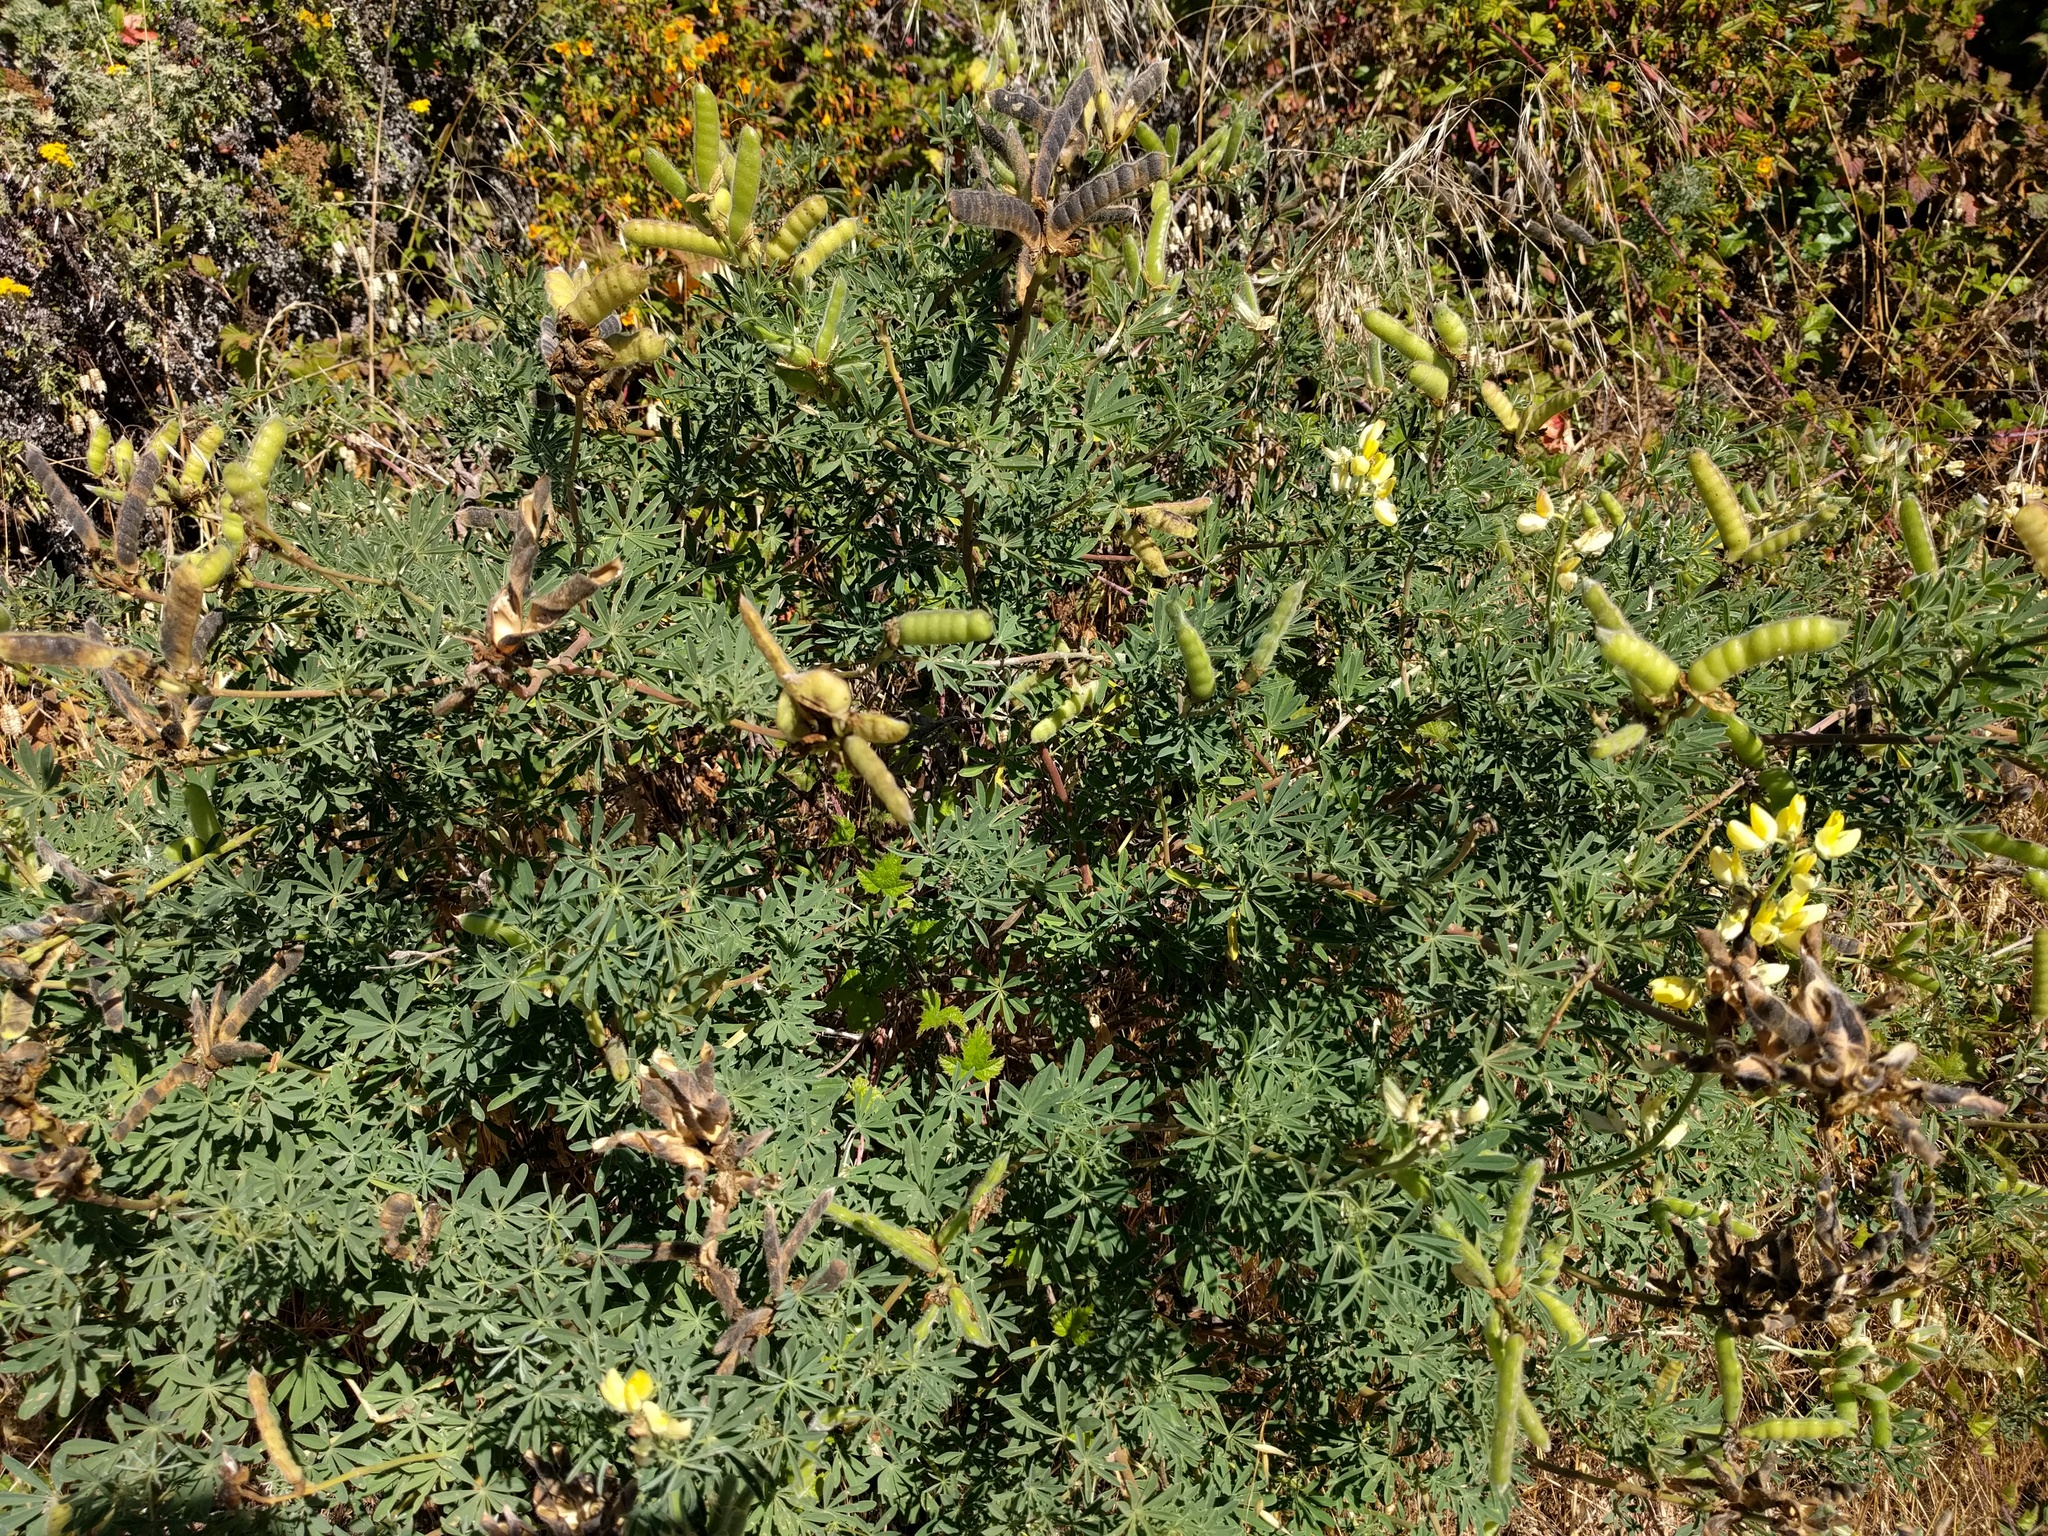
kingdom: Plantae
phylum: Tracheophyta
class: Magnoliopsida
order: Fabales
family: Fabaceae
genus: Lupinus
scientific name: Lupinus arboreus
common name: Yellow bush lupine
